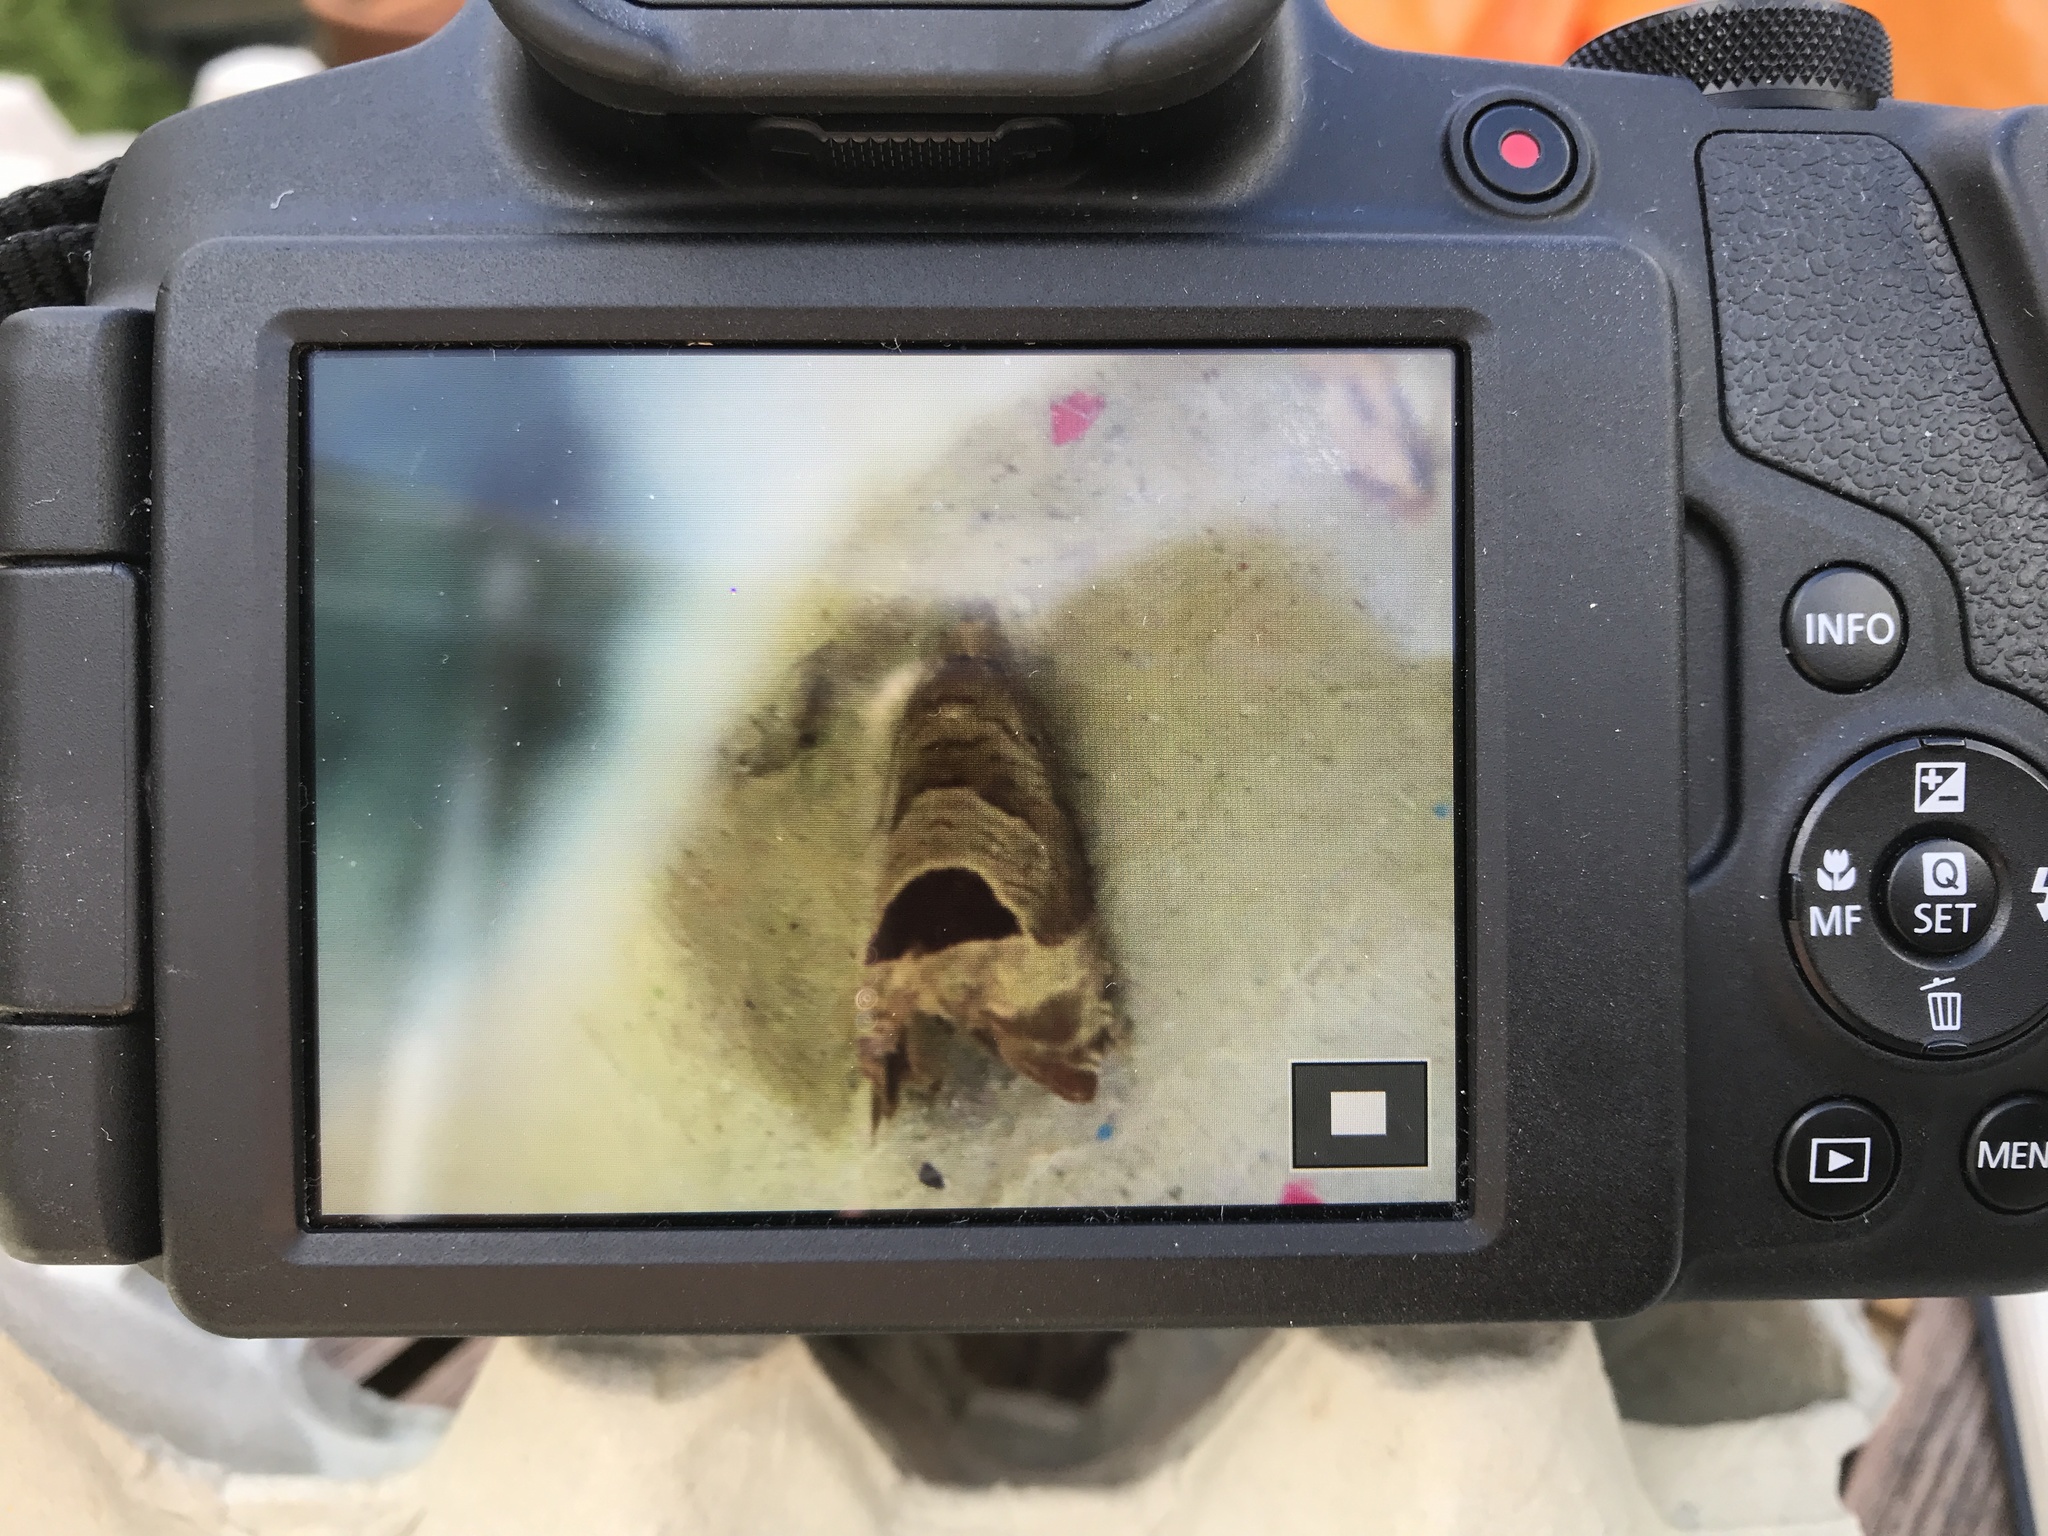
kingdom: Animalia
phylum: Arthropoda
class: Insecta
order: Lepidoptera
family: Tortricidae
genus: Notocelia
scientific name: Notocelia uddmanniana
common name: Bramble shoot moth
